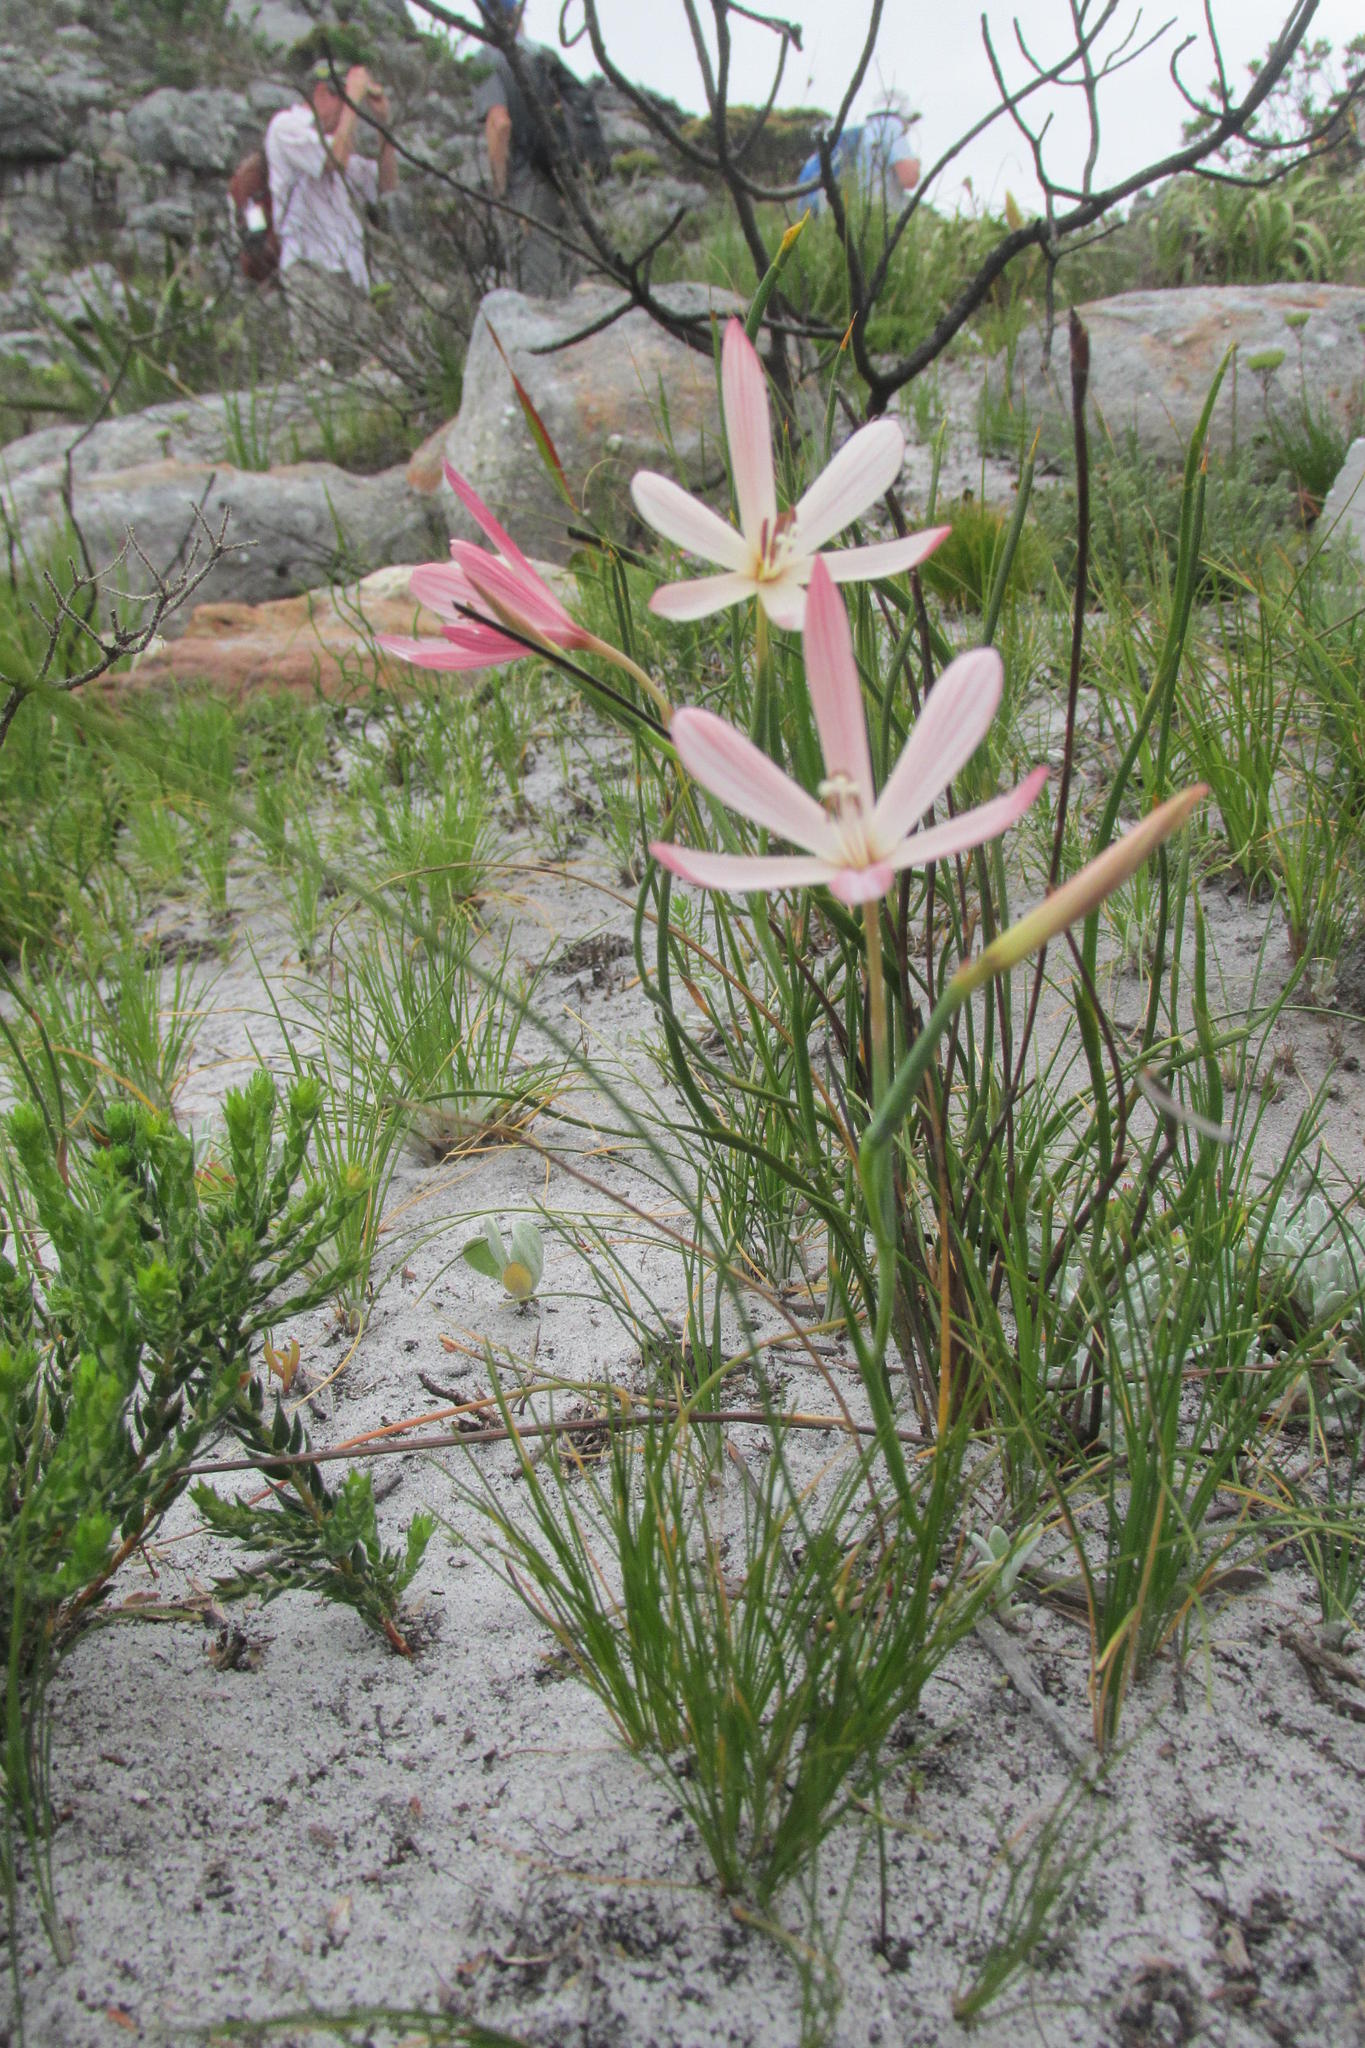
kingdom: Plantae
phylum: Tracheophyta
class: Liliopsida
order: Asparagales
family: Iridaceae
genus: Geissorhiza
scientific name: Geissorhiza bonae-spei
